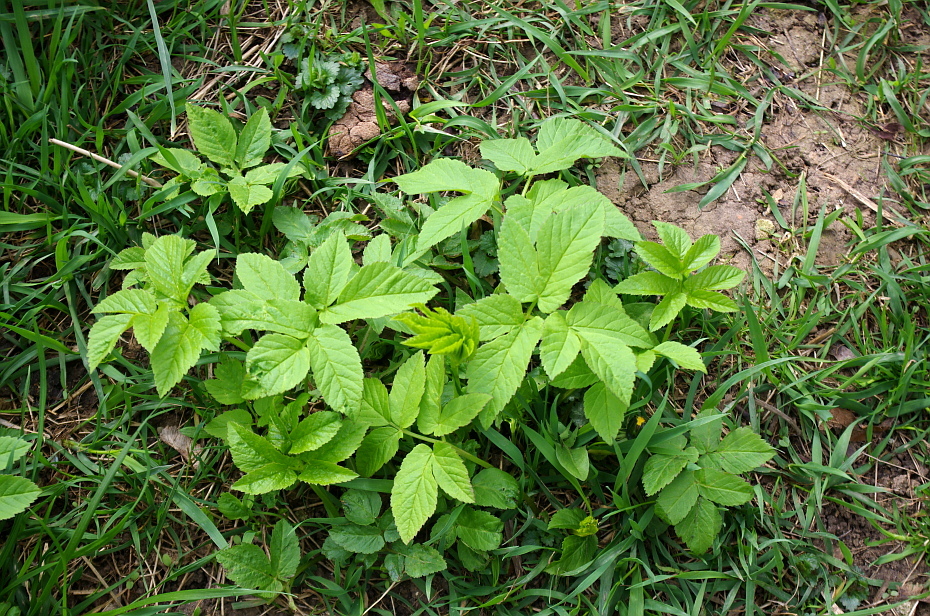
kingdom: Plantae
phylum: Tracheophyta
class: Magnoliopsida
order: Apiales
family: Apiaceae
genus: Aegopodium
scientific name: Aegopodium podagraria
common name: Ground-elder
